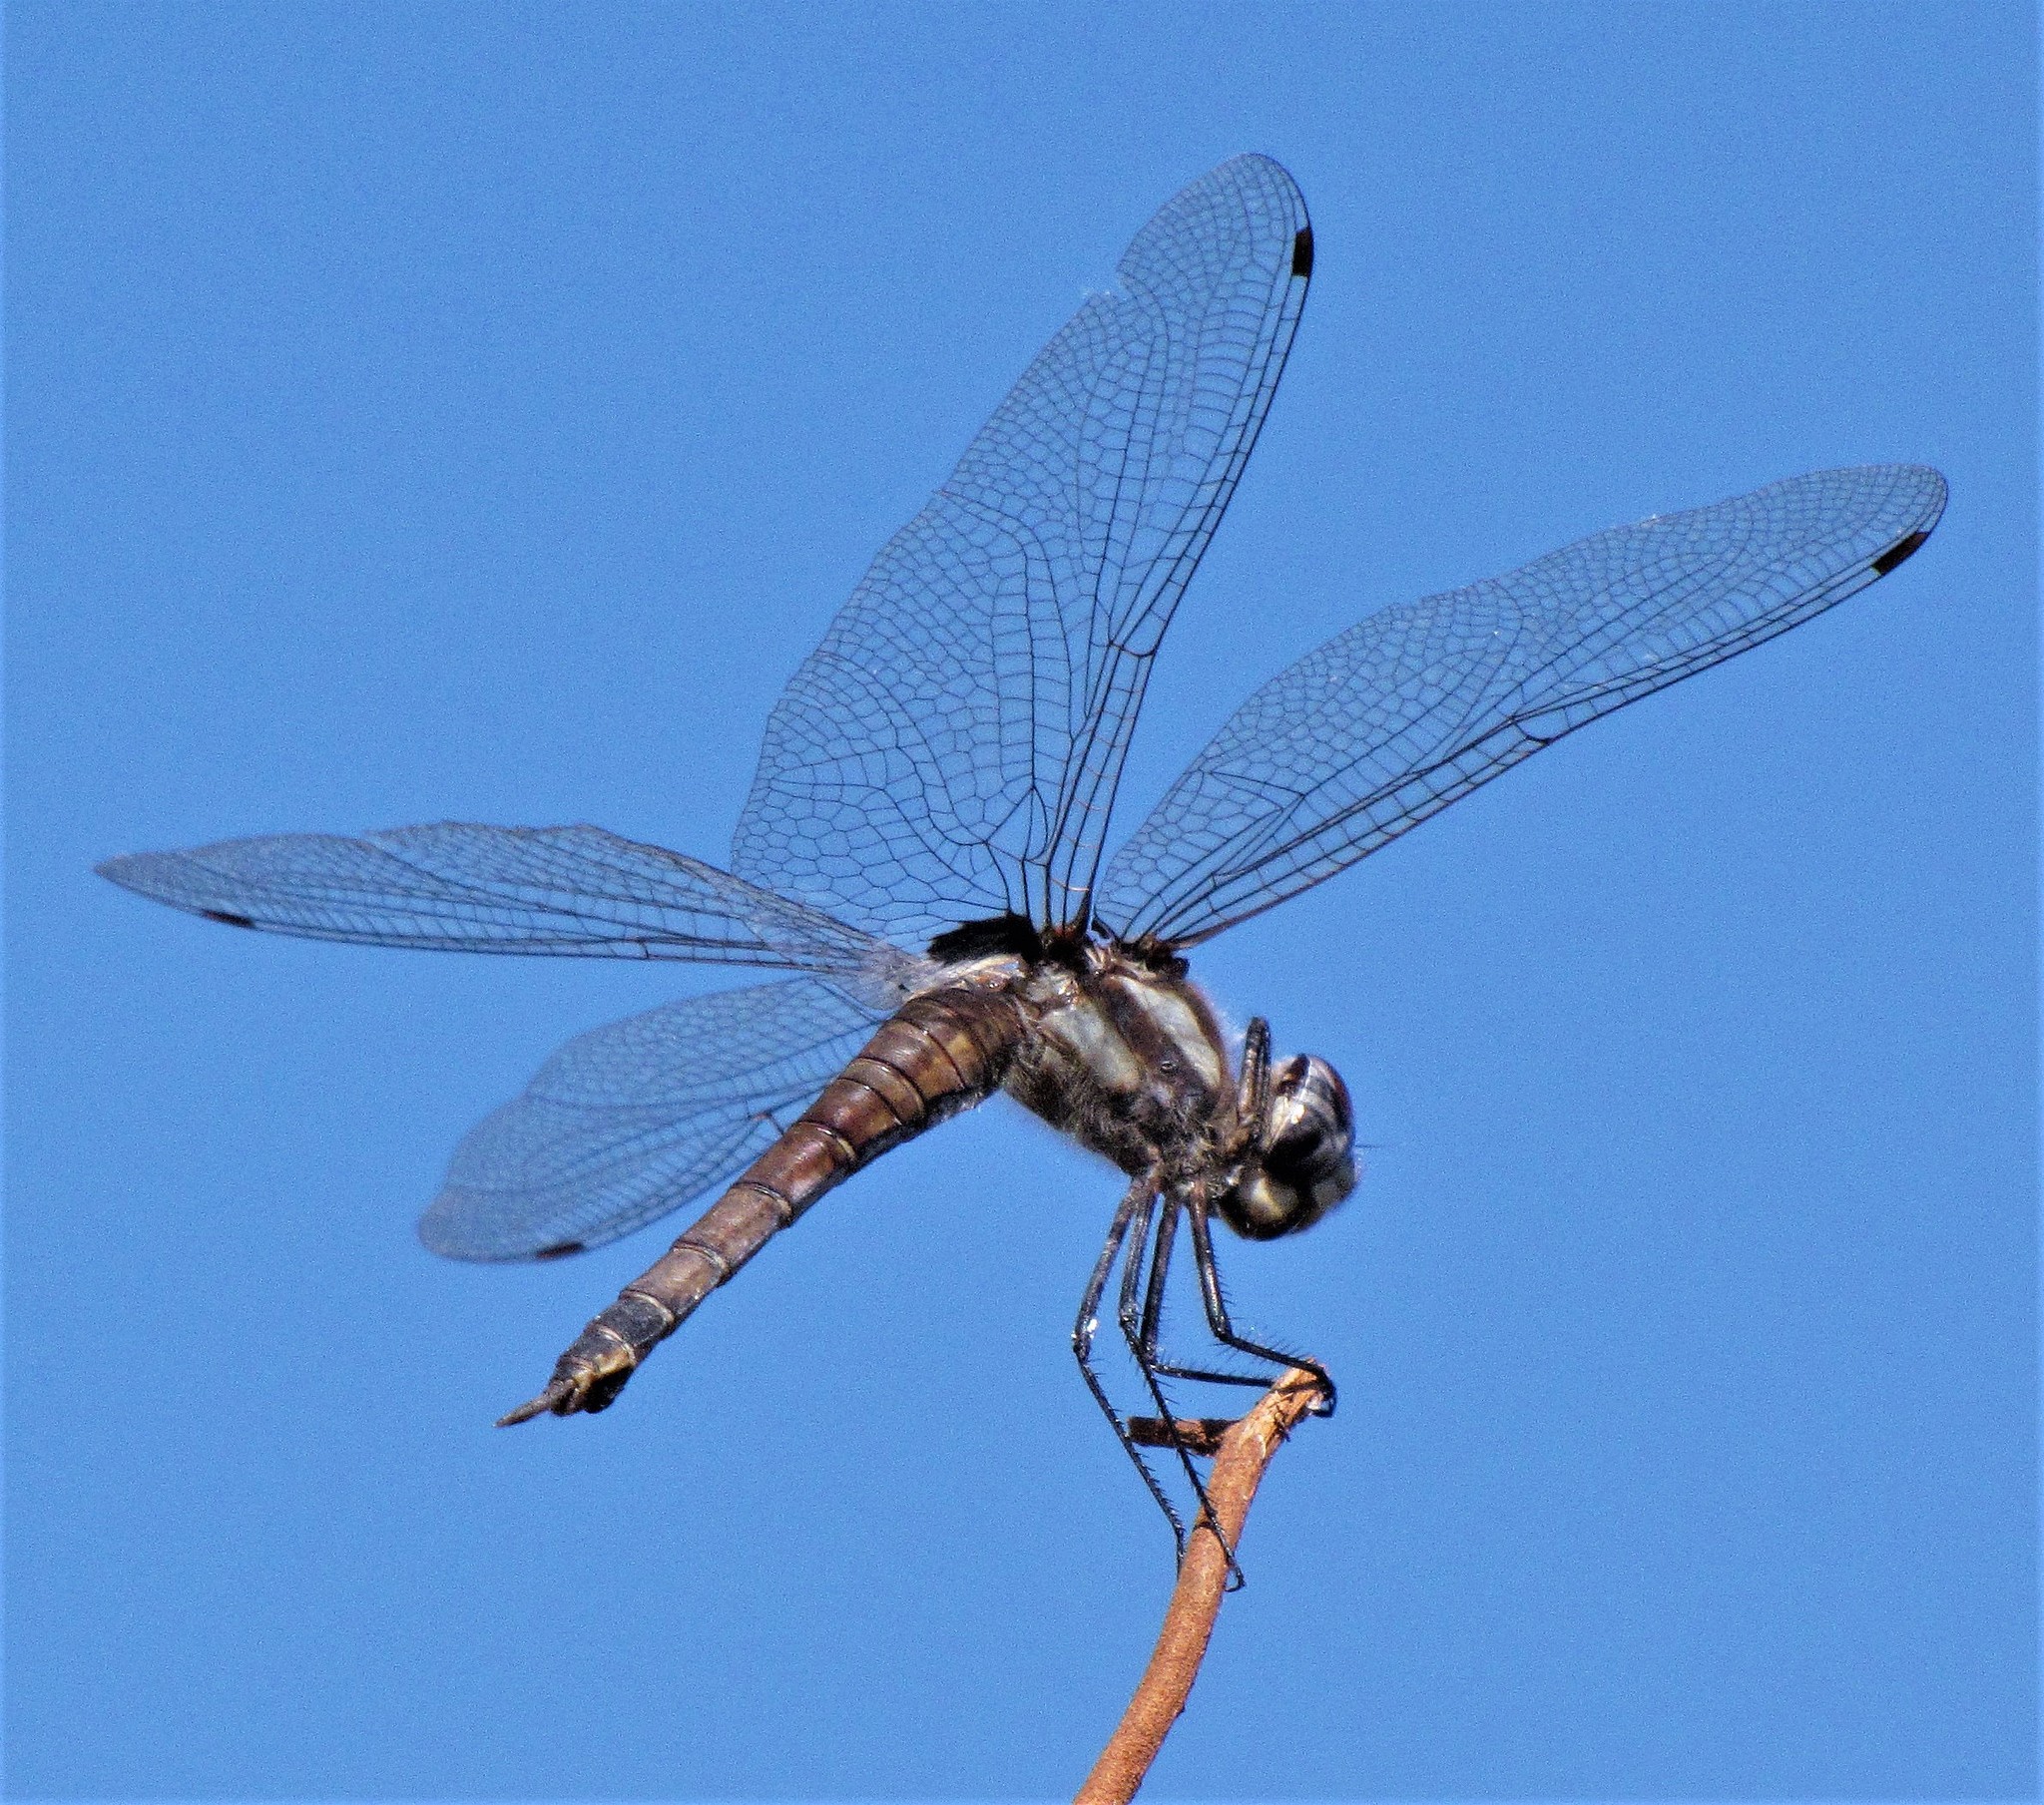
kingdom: Animalia
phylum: Arthropoda
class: Insecta
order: Odonata
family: Libellulidae
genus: Tramea
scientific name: Tramea cophysa
